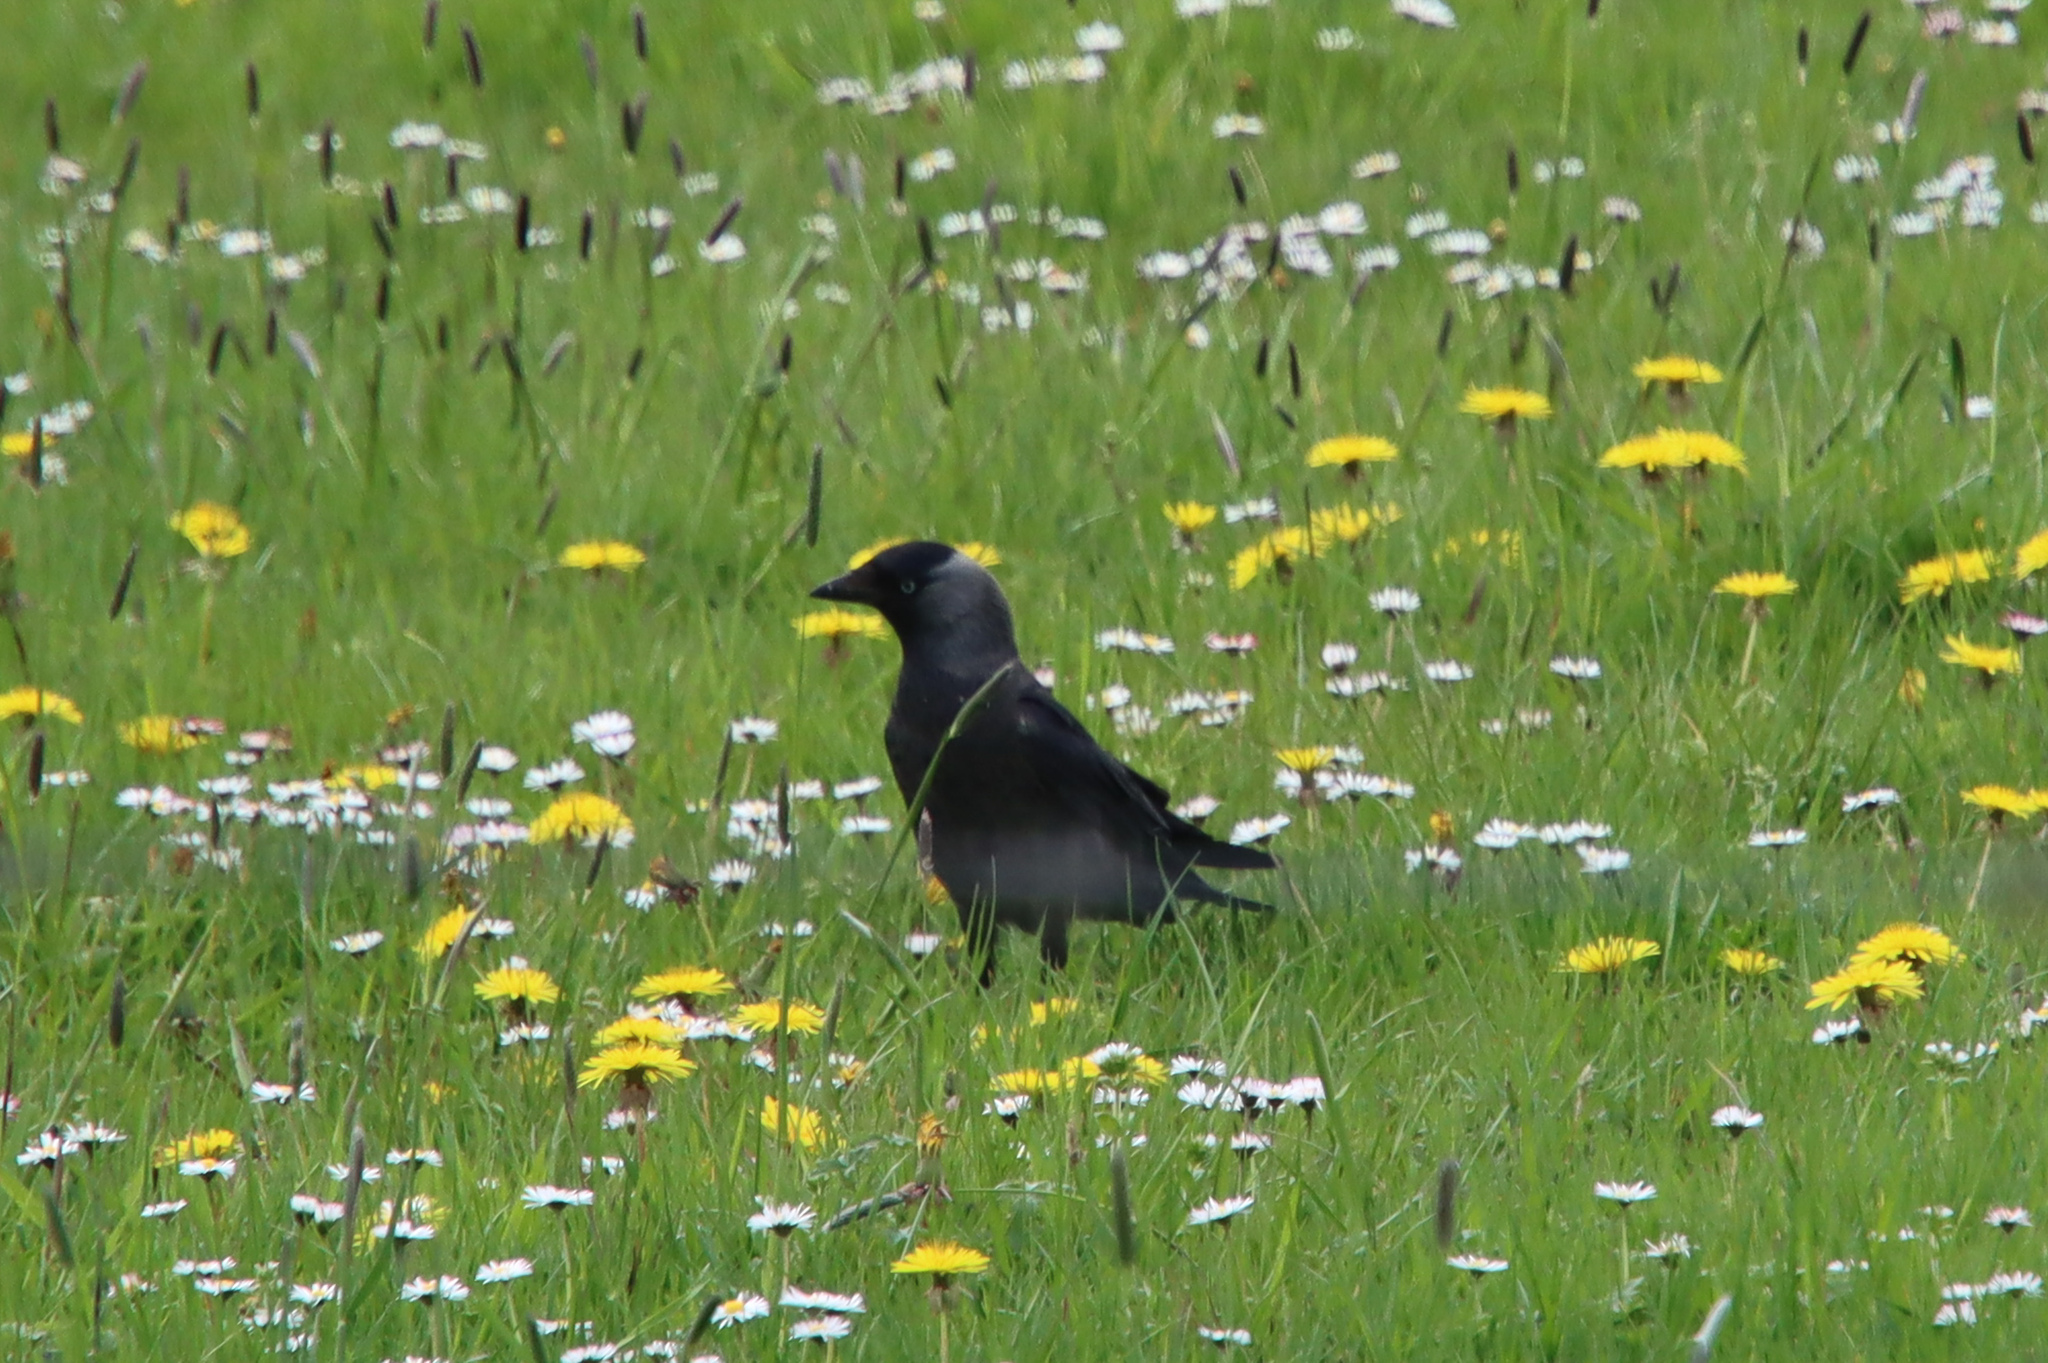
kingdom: Animalia
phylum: Chordata
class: Aves
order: Passeriformes
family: Corvidae
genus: Coloeus
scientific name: Coloeus monedula
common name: Western jackdaw
